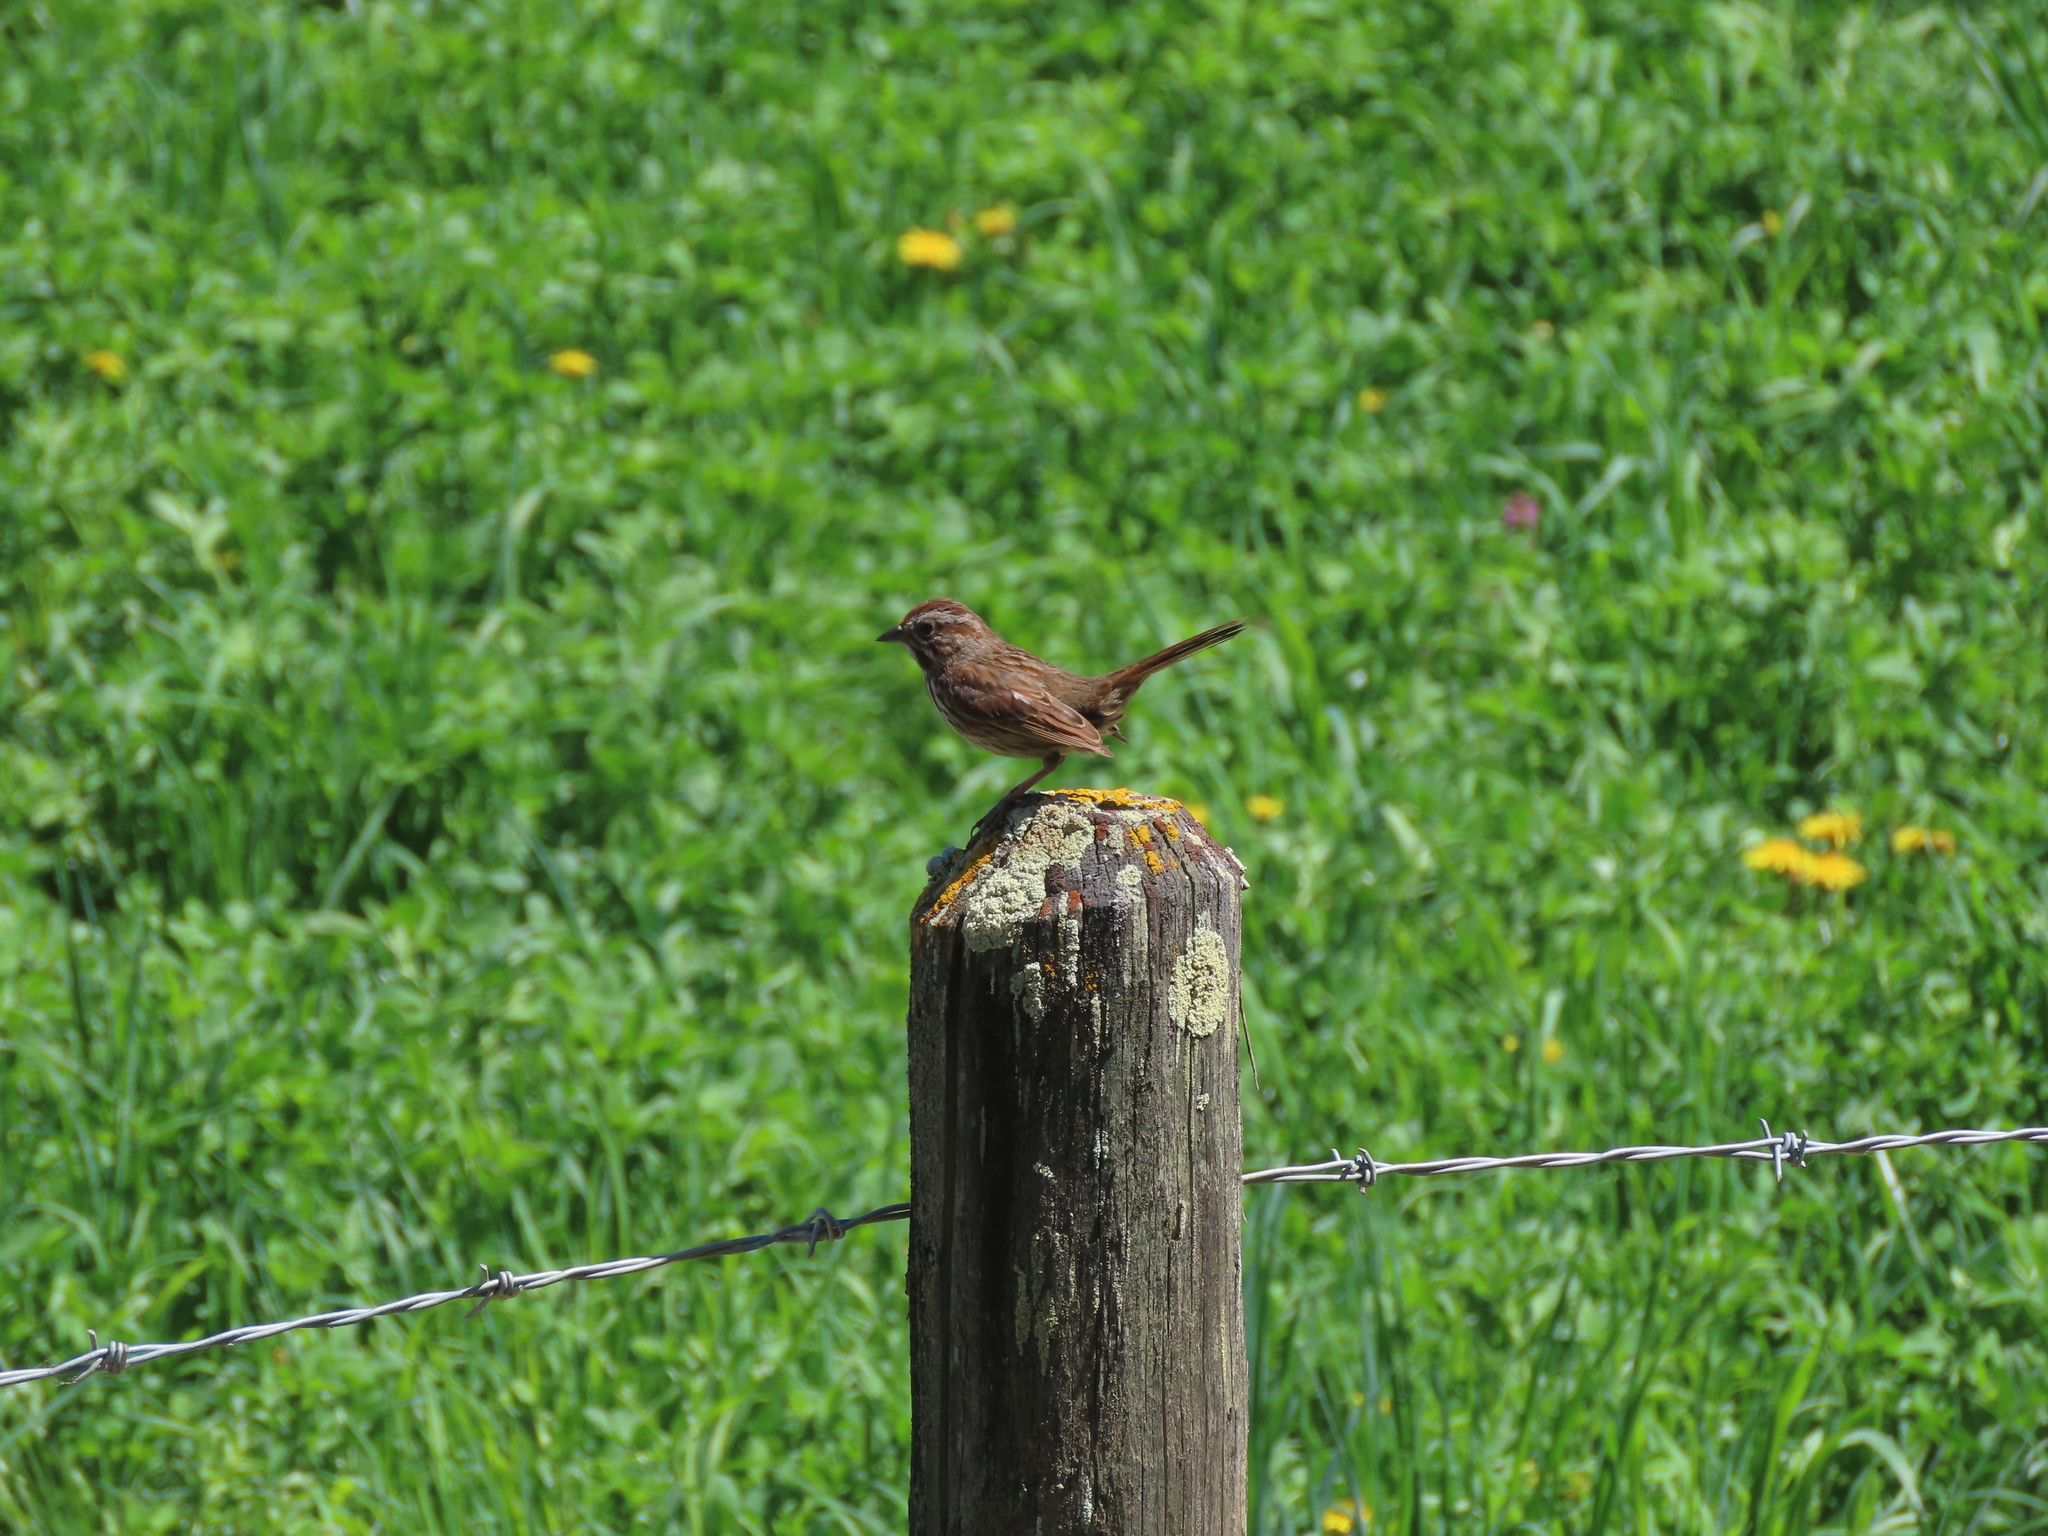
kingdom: Animalia
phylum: Chordata
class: Aves
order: Passeriformes
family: Passerellidae
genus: Melospiza
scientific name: Melospiza melodia
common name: Song sparrow
